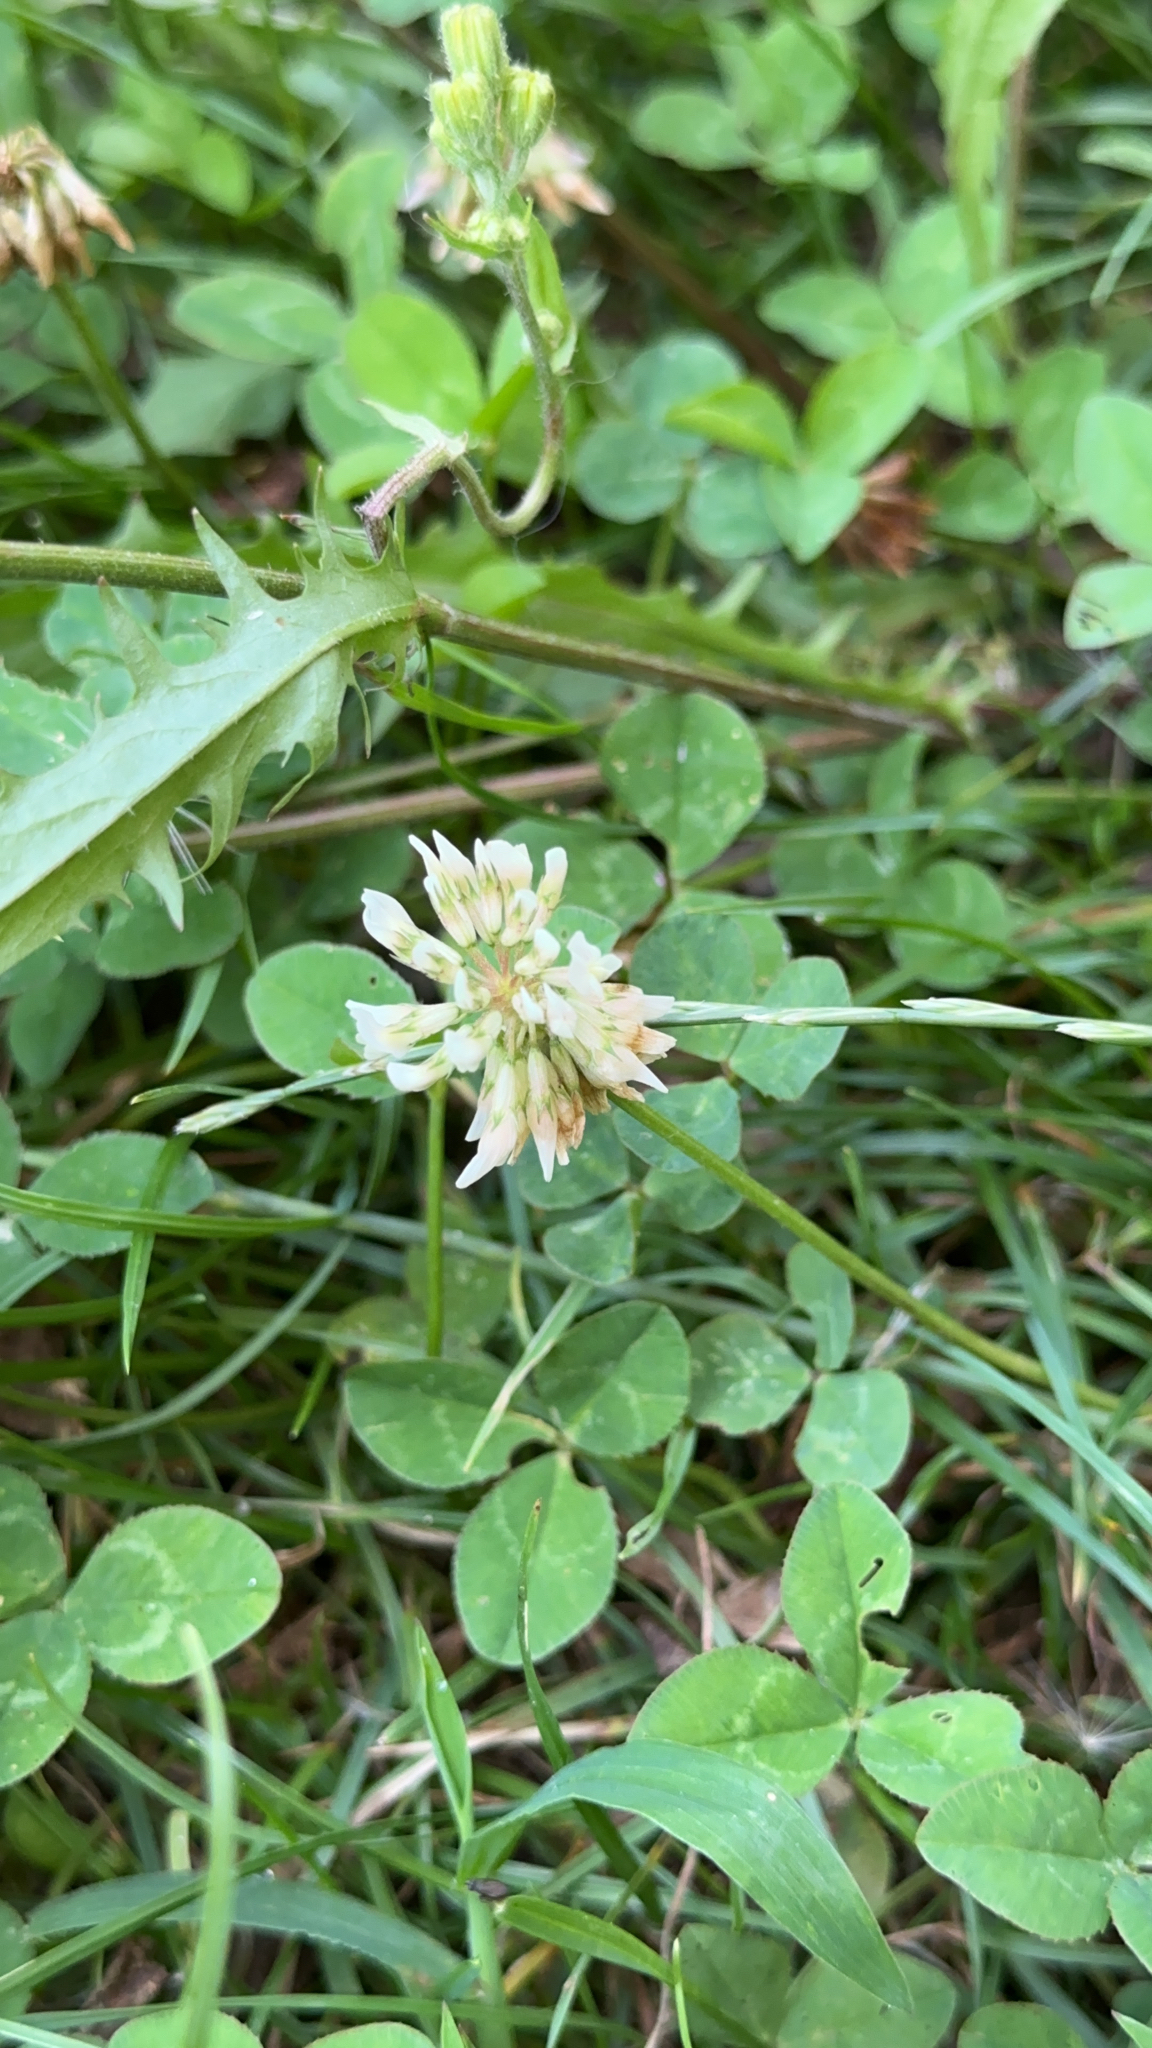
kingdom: Plantae
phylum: Tracheophyta
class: Magnoliopsida
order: Fabales
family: Fabaceae
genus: Trifolium
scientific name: Trifolium repens
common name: White clover
